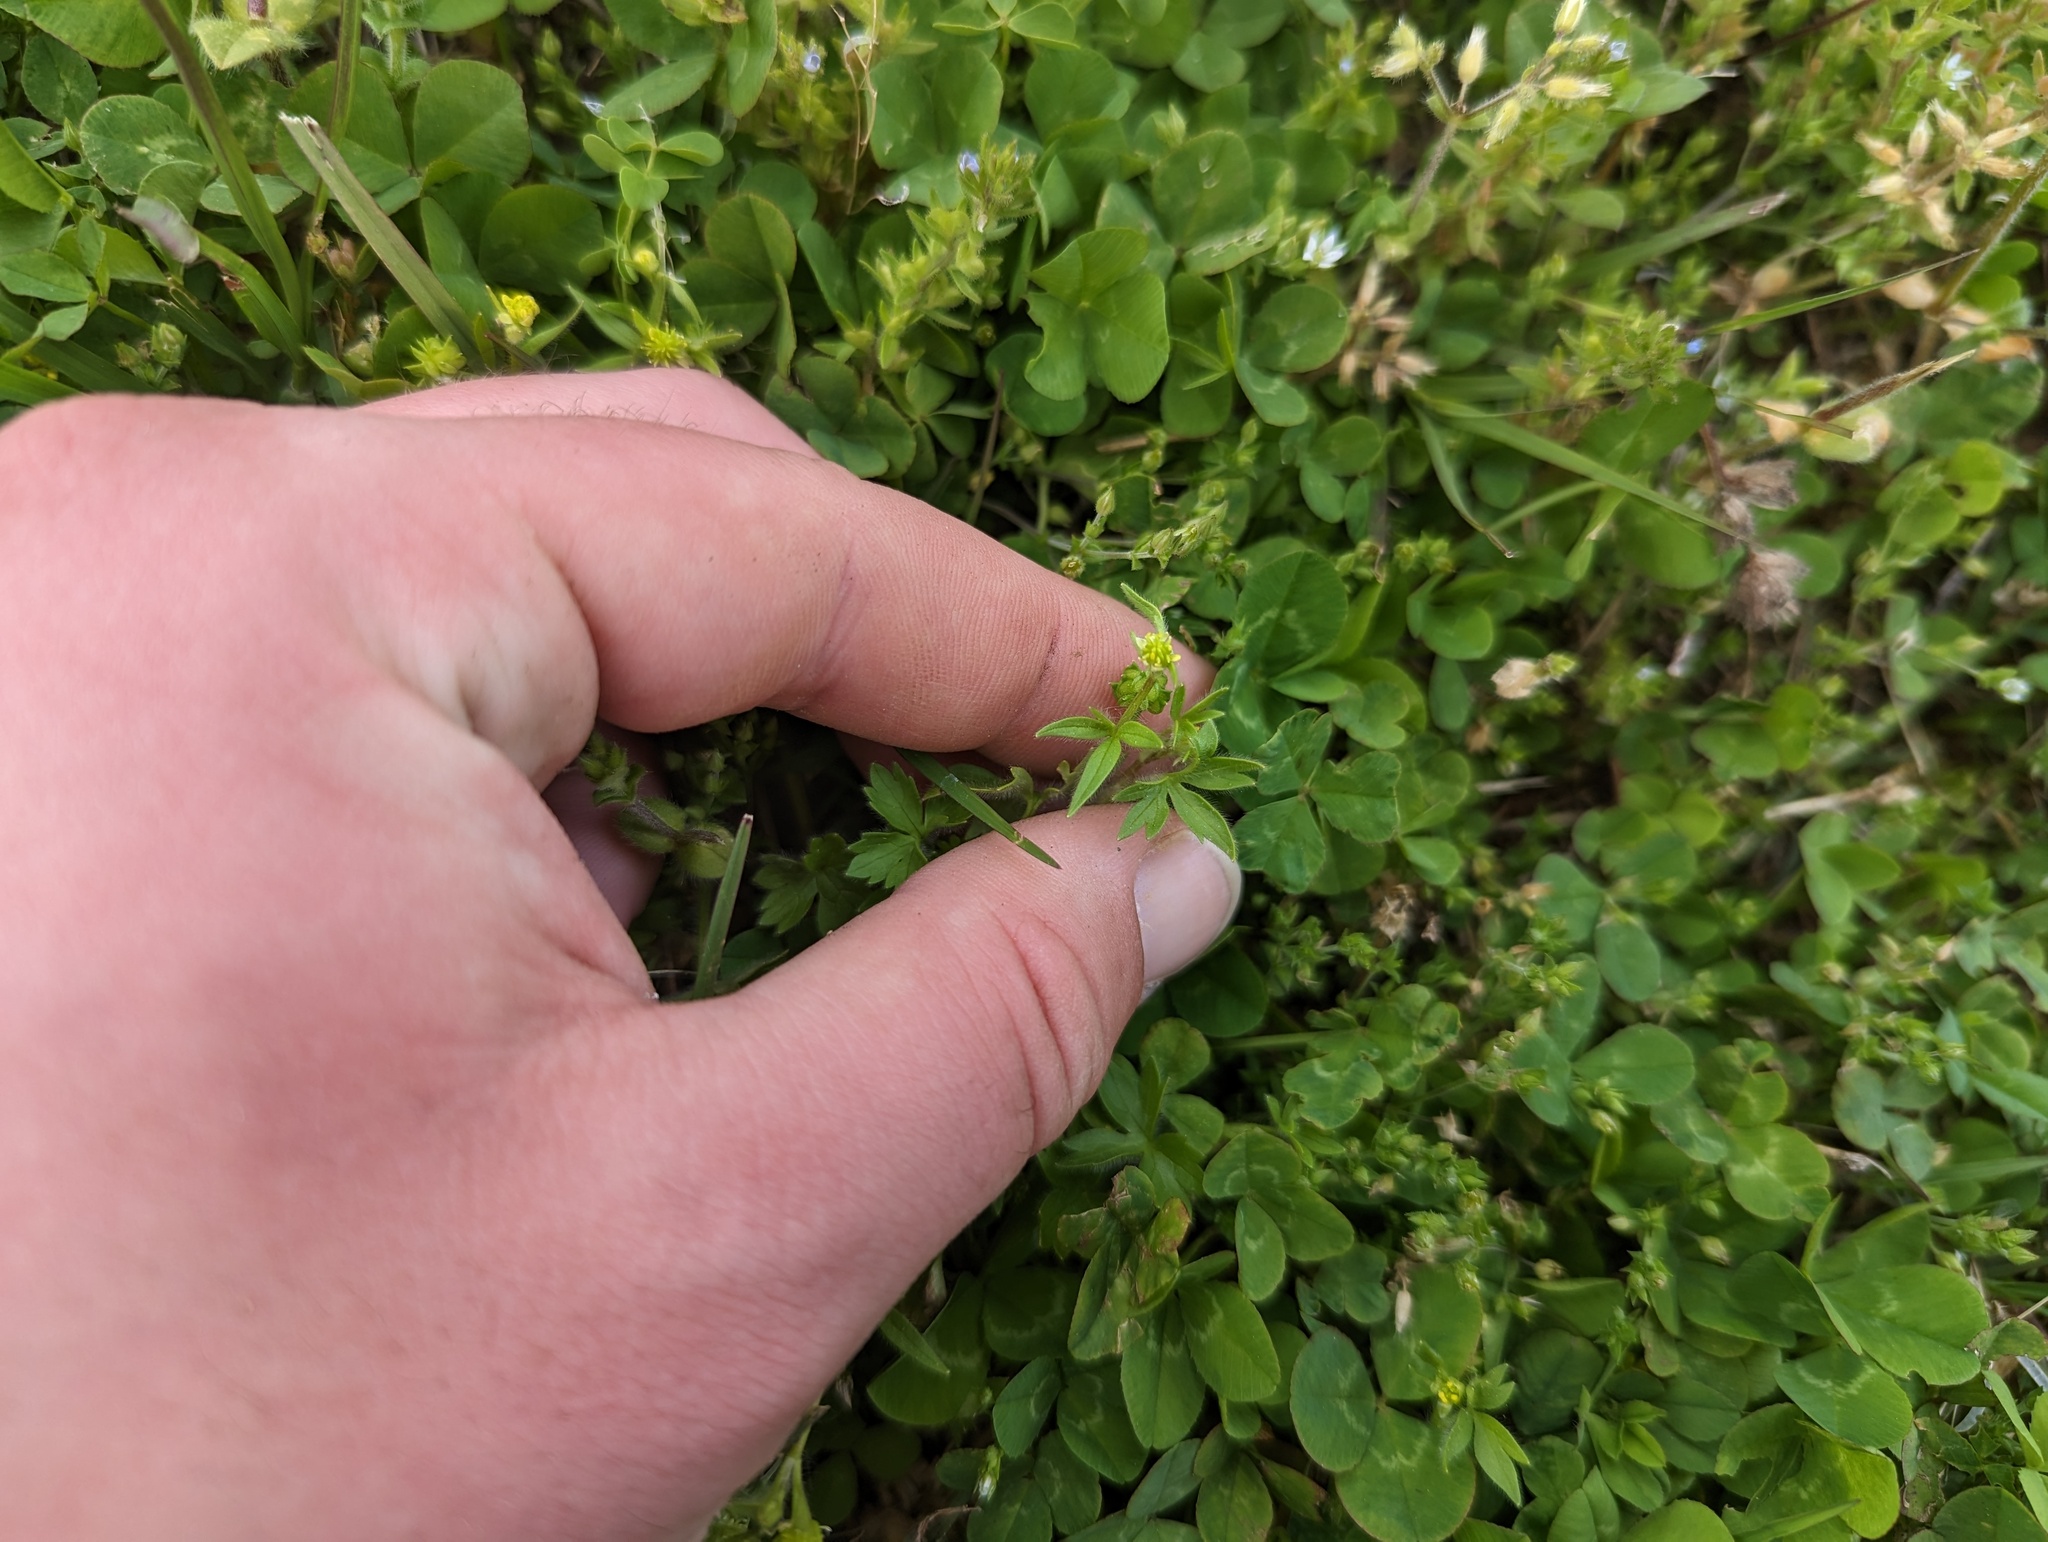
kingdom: Plantae
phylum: Tracheophyta
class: Magnoliopsida
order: Ranunculales
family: Ranunculaceae
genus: Ranunculus
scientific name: Ranunculus parviflorus
